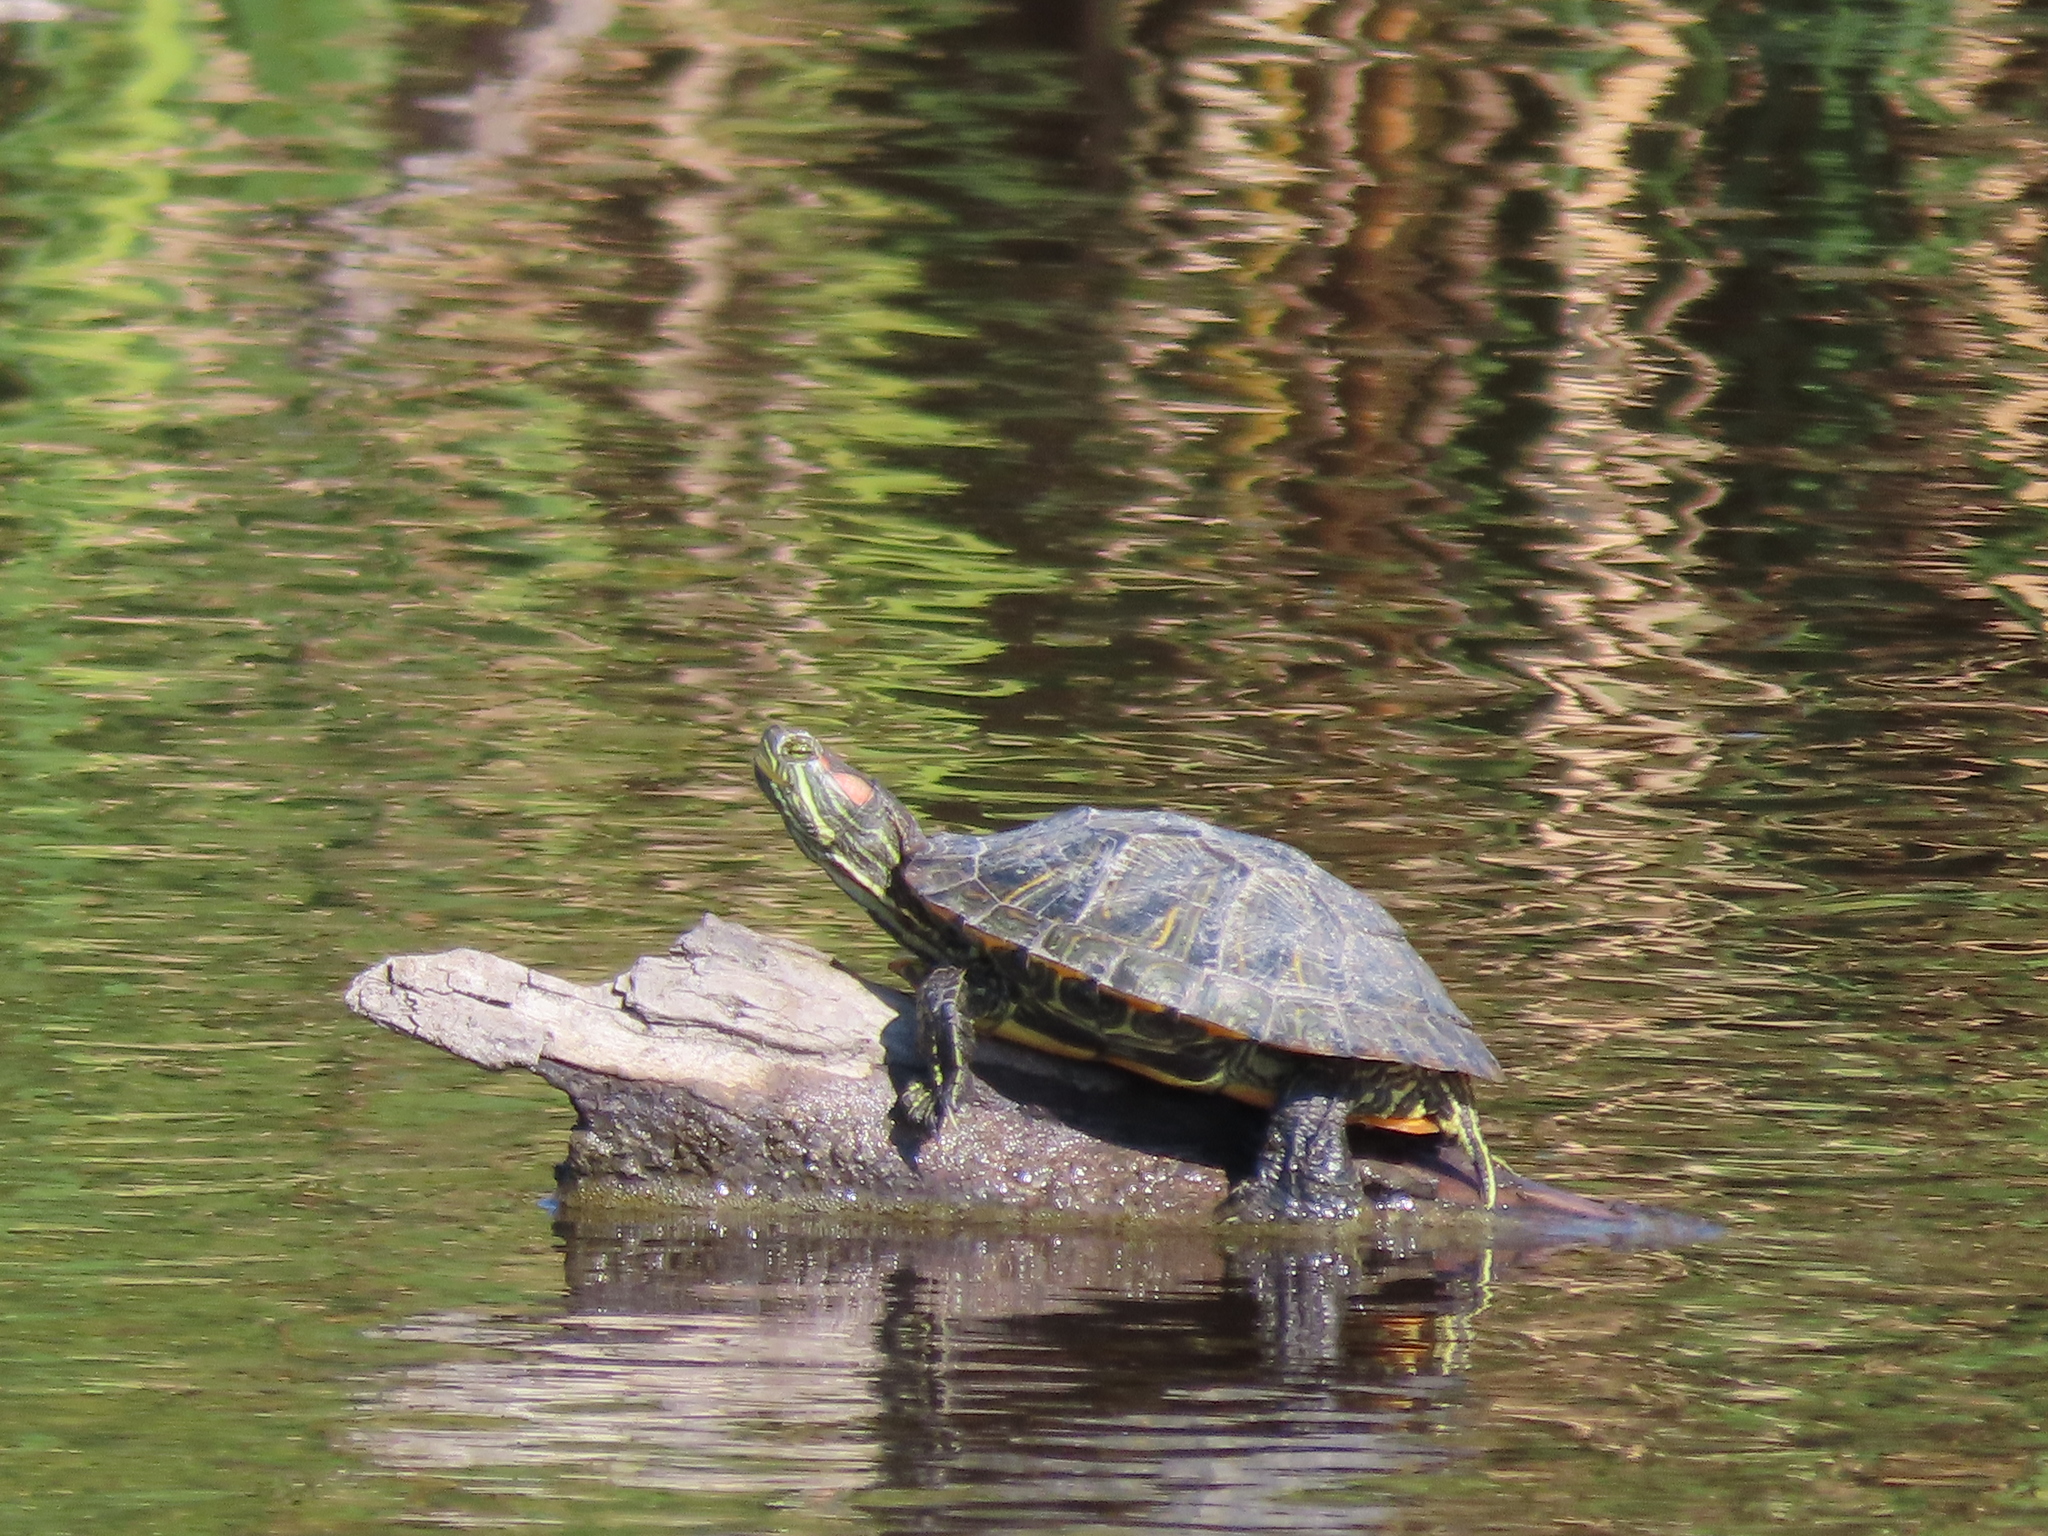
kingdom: Animalia
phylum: Chordata
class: Testudines
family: Emydidae
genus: Trachemys
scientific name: Trachemys scripta
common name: Slider
